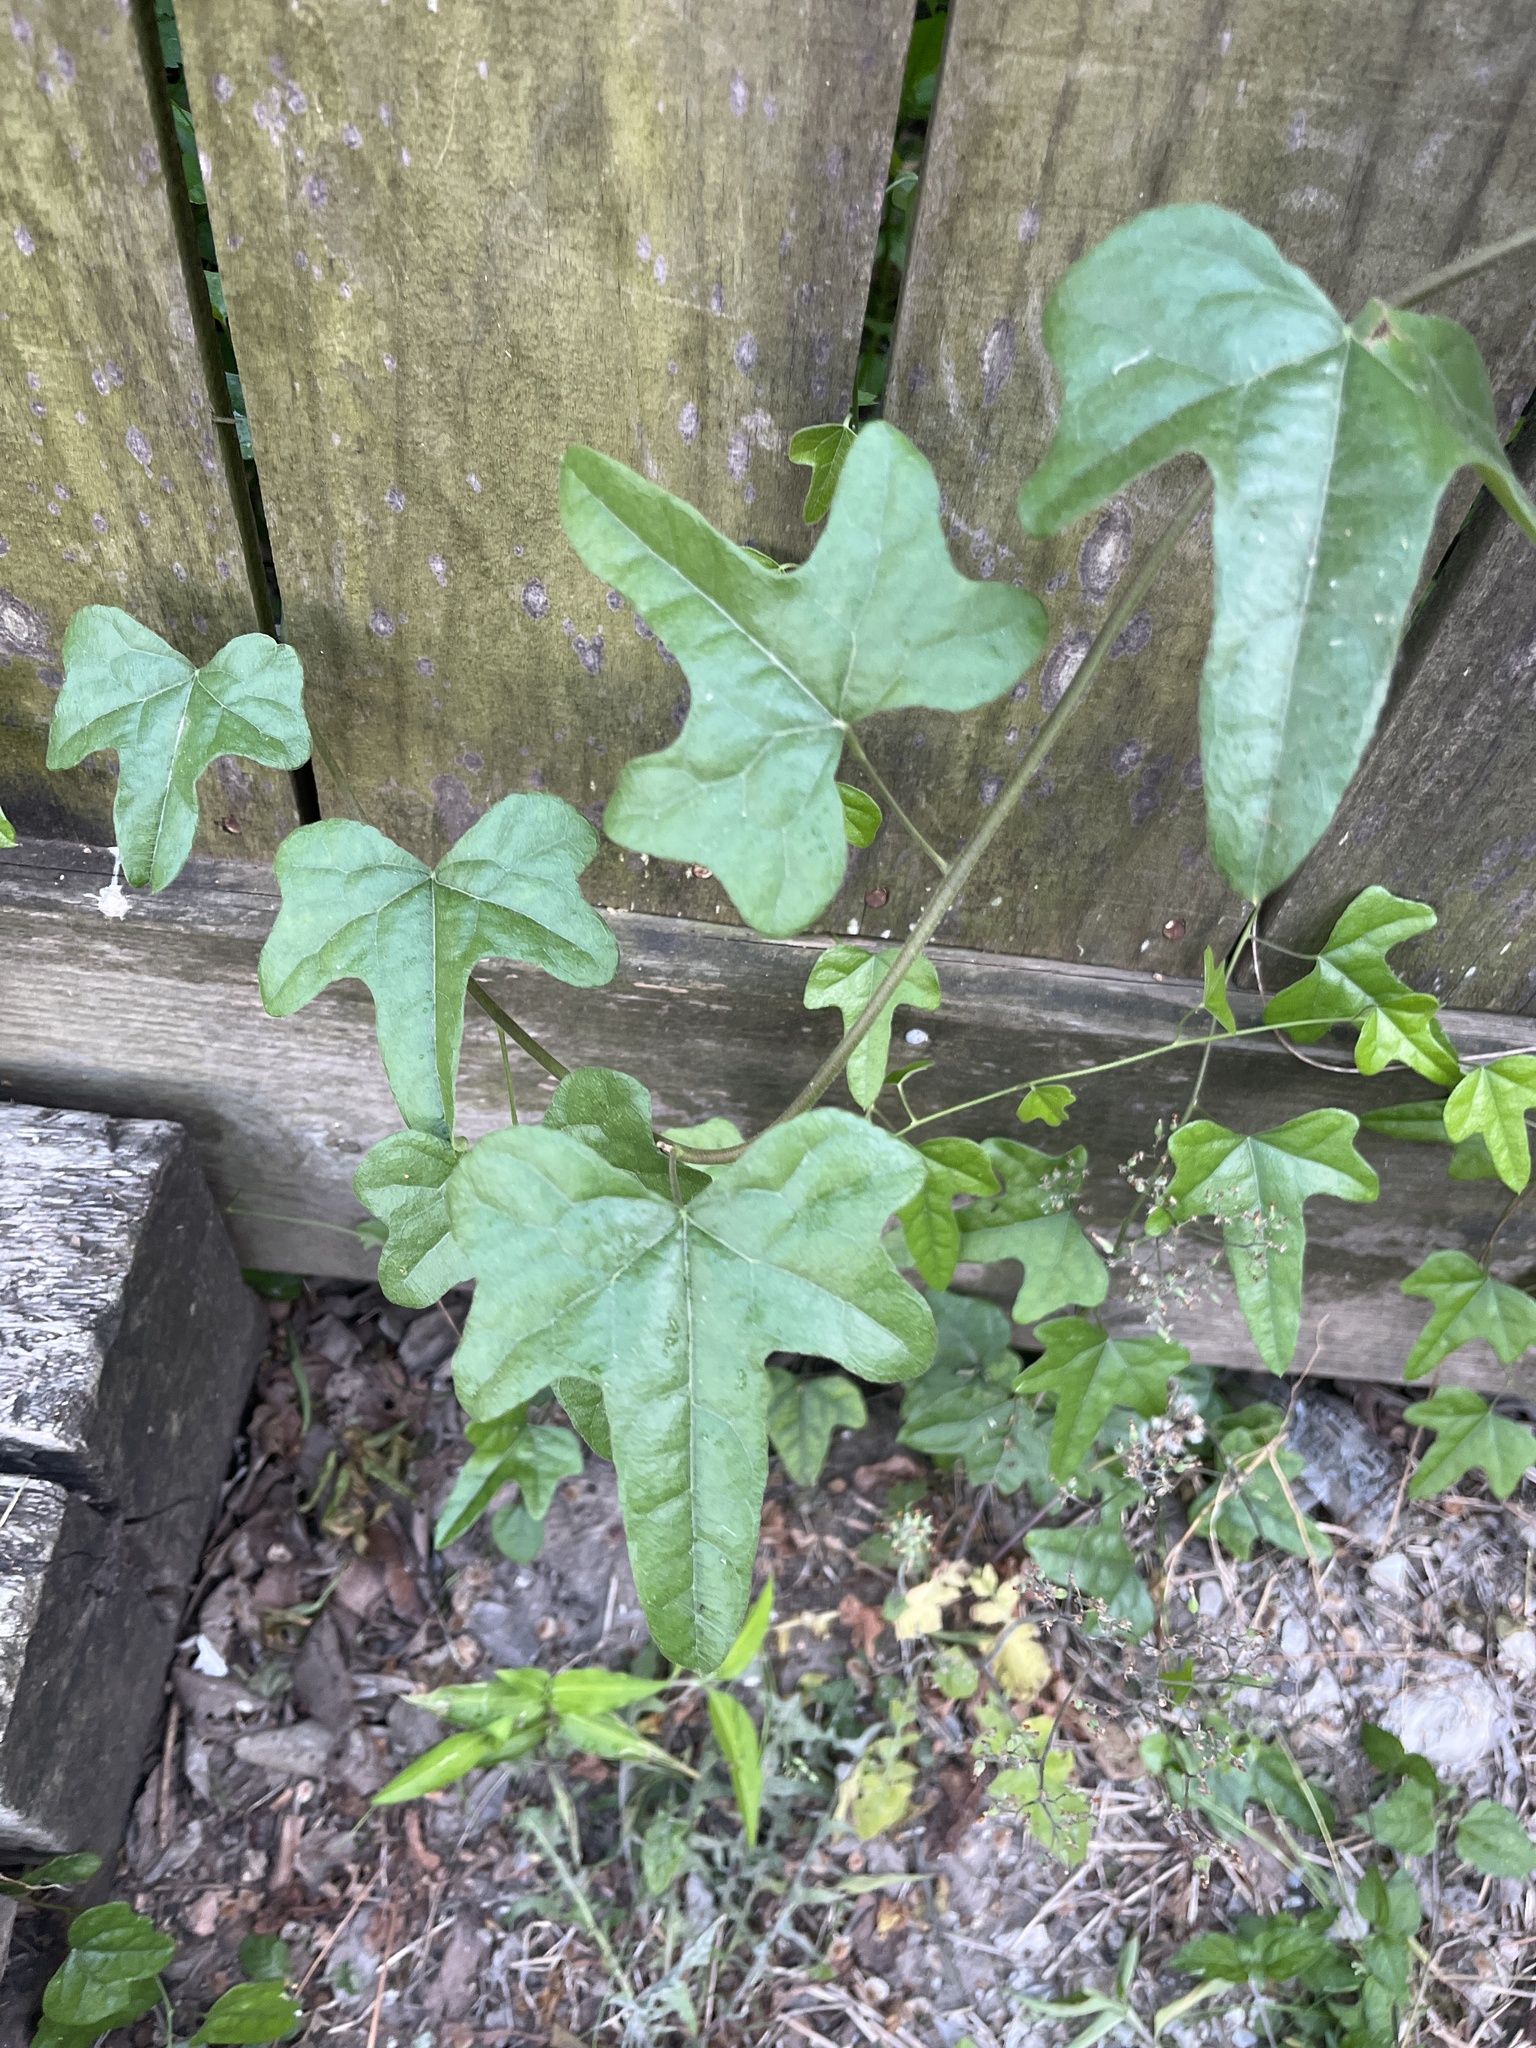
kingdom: Plantae
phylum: Tracheophyta
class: Magnoliopsida
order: Ranunculales
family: Menispermaceae
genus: Cocculus
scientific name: Cocculus carolinus
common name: Carolina moonseed
